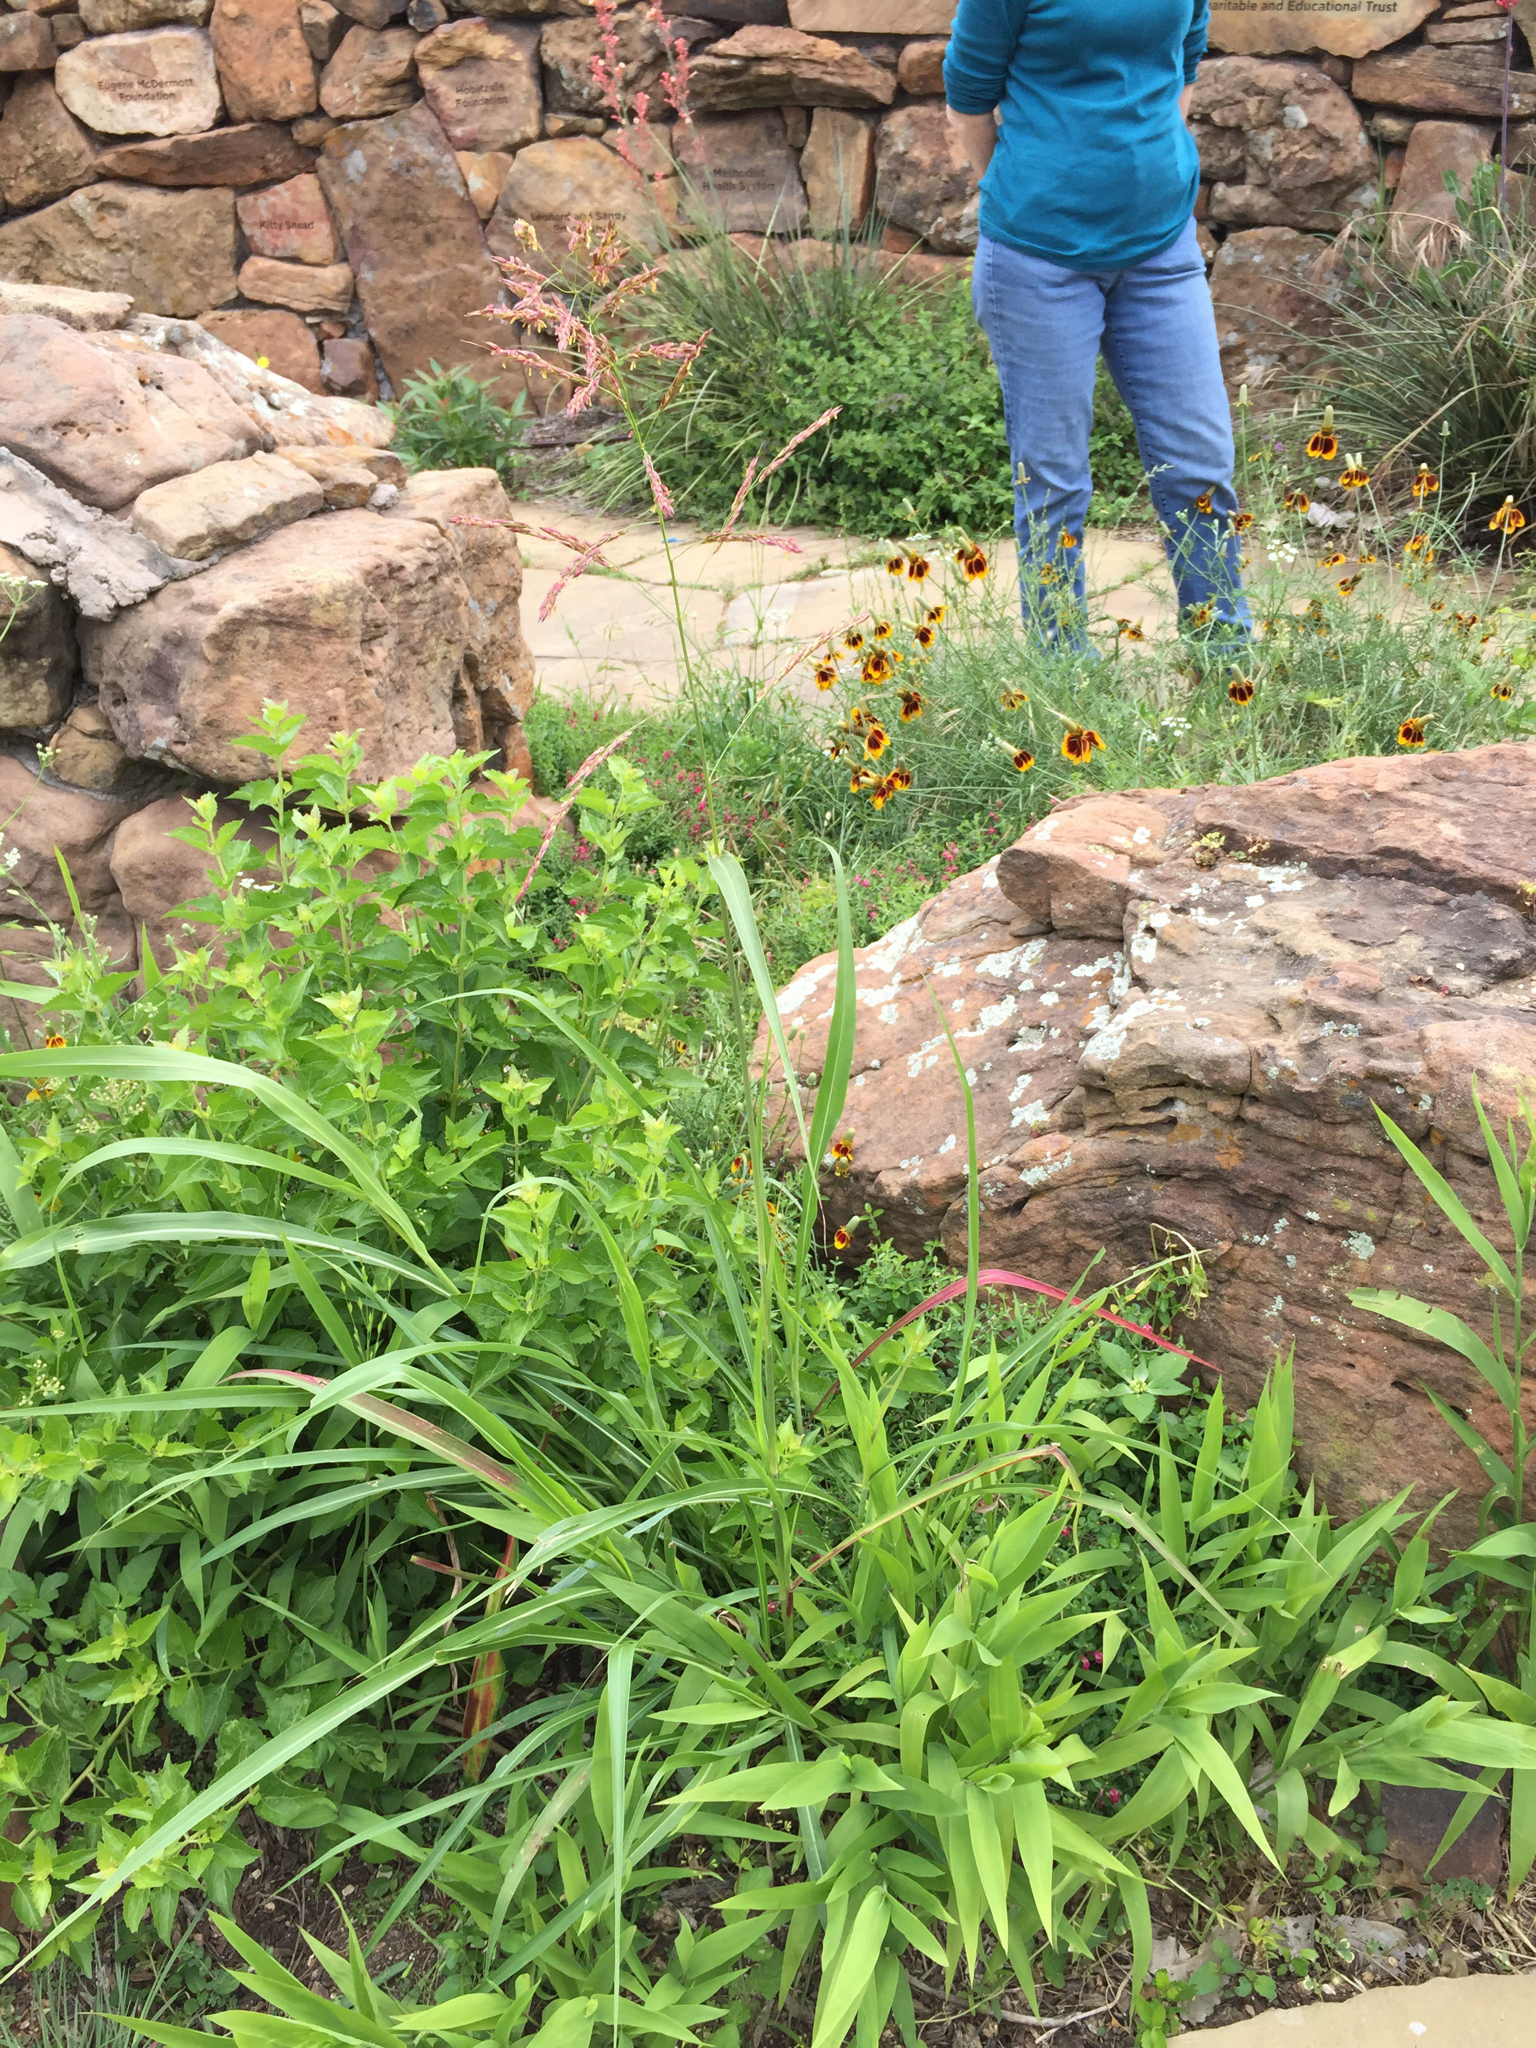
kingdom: Plantae
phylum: Tracheophyta
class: Liliopsida
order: Poales
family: Poaceae
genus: Sorghum
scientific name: Sorghum halepense
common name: Johnson-grass
